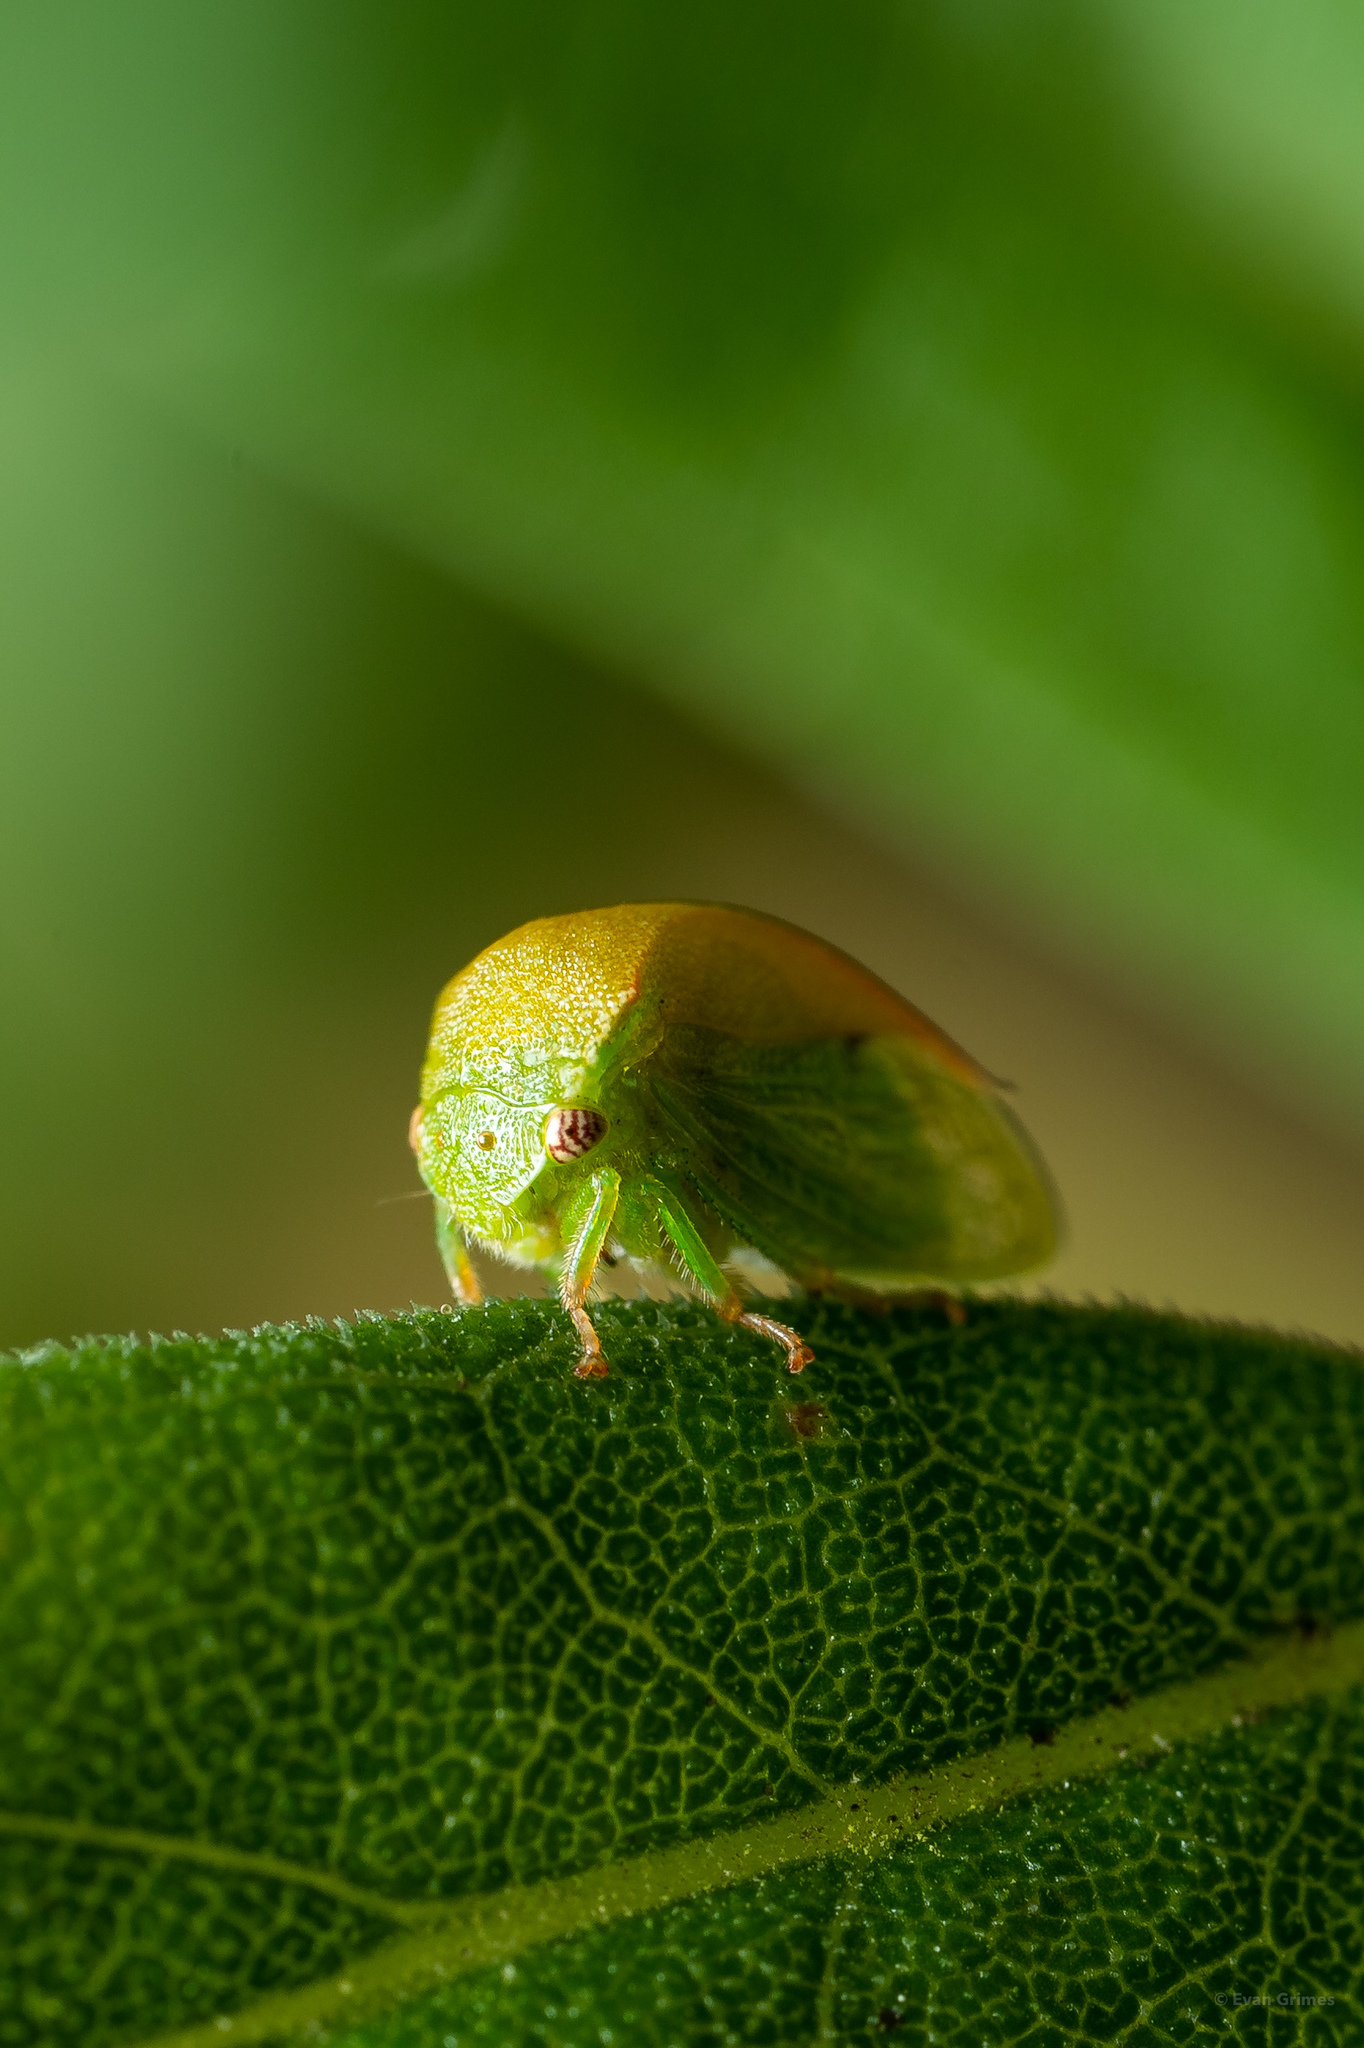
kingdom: Animalia
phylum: Arthropoda
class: Insecta
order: Hemiptera
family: Membracidae
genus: Spissistilus
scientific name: Spissistilus festina
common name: Membracid bug
